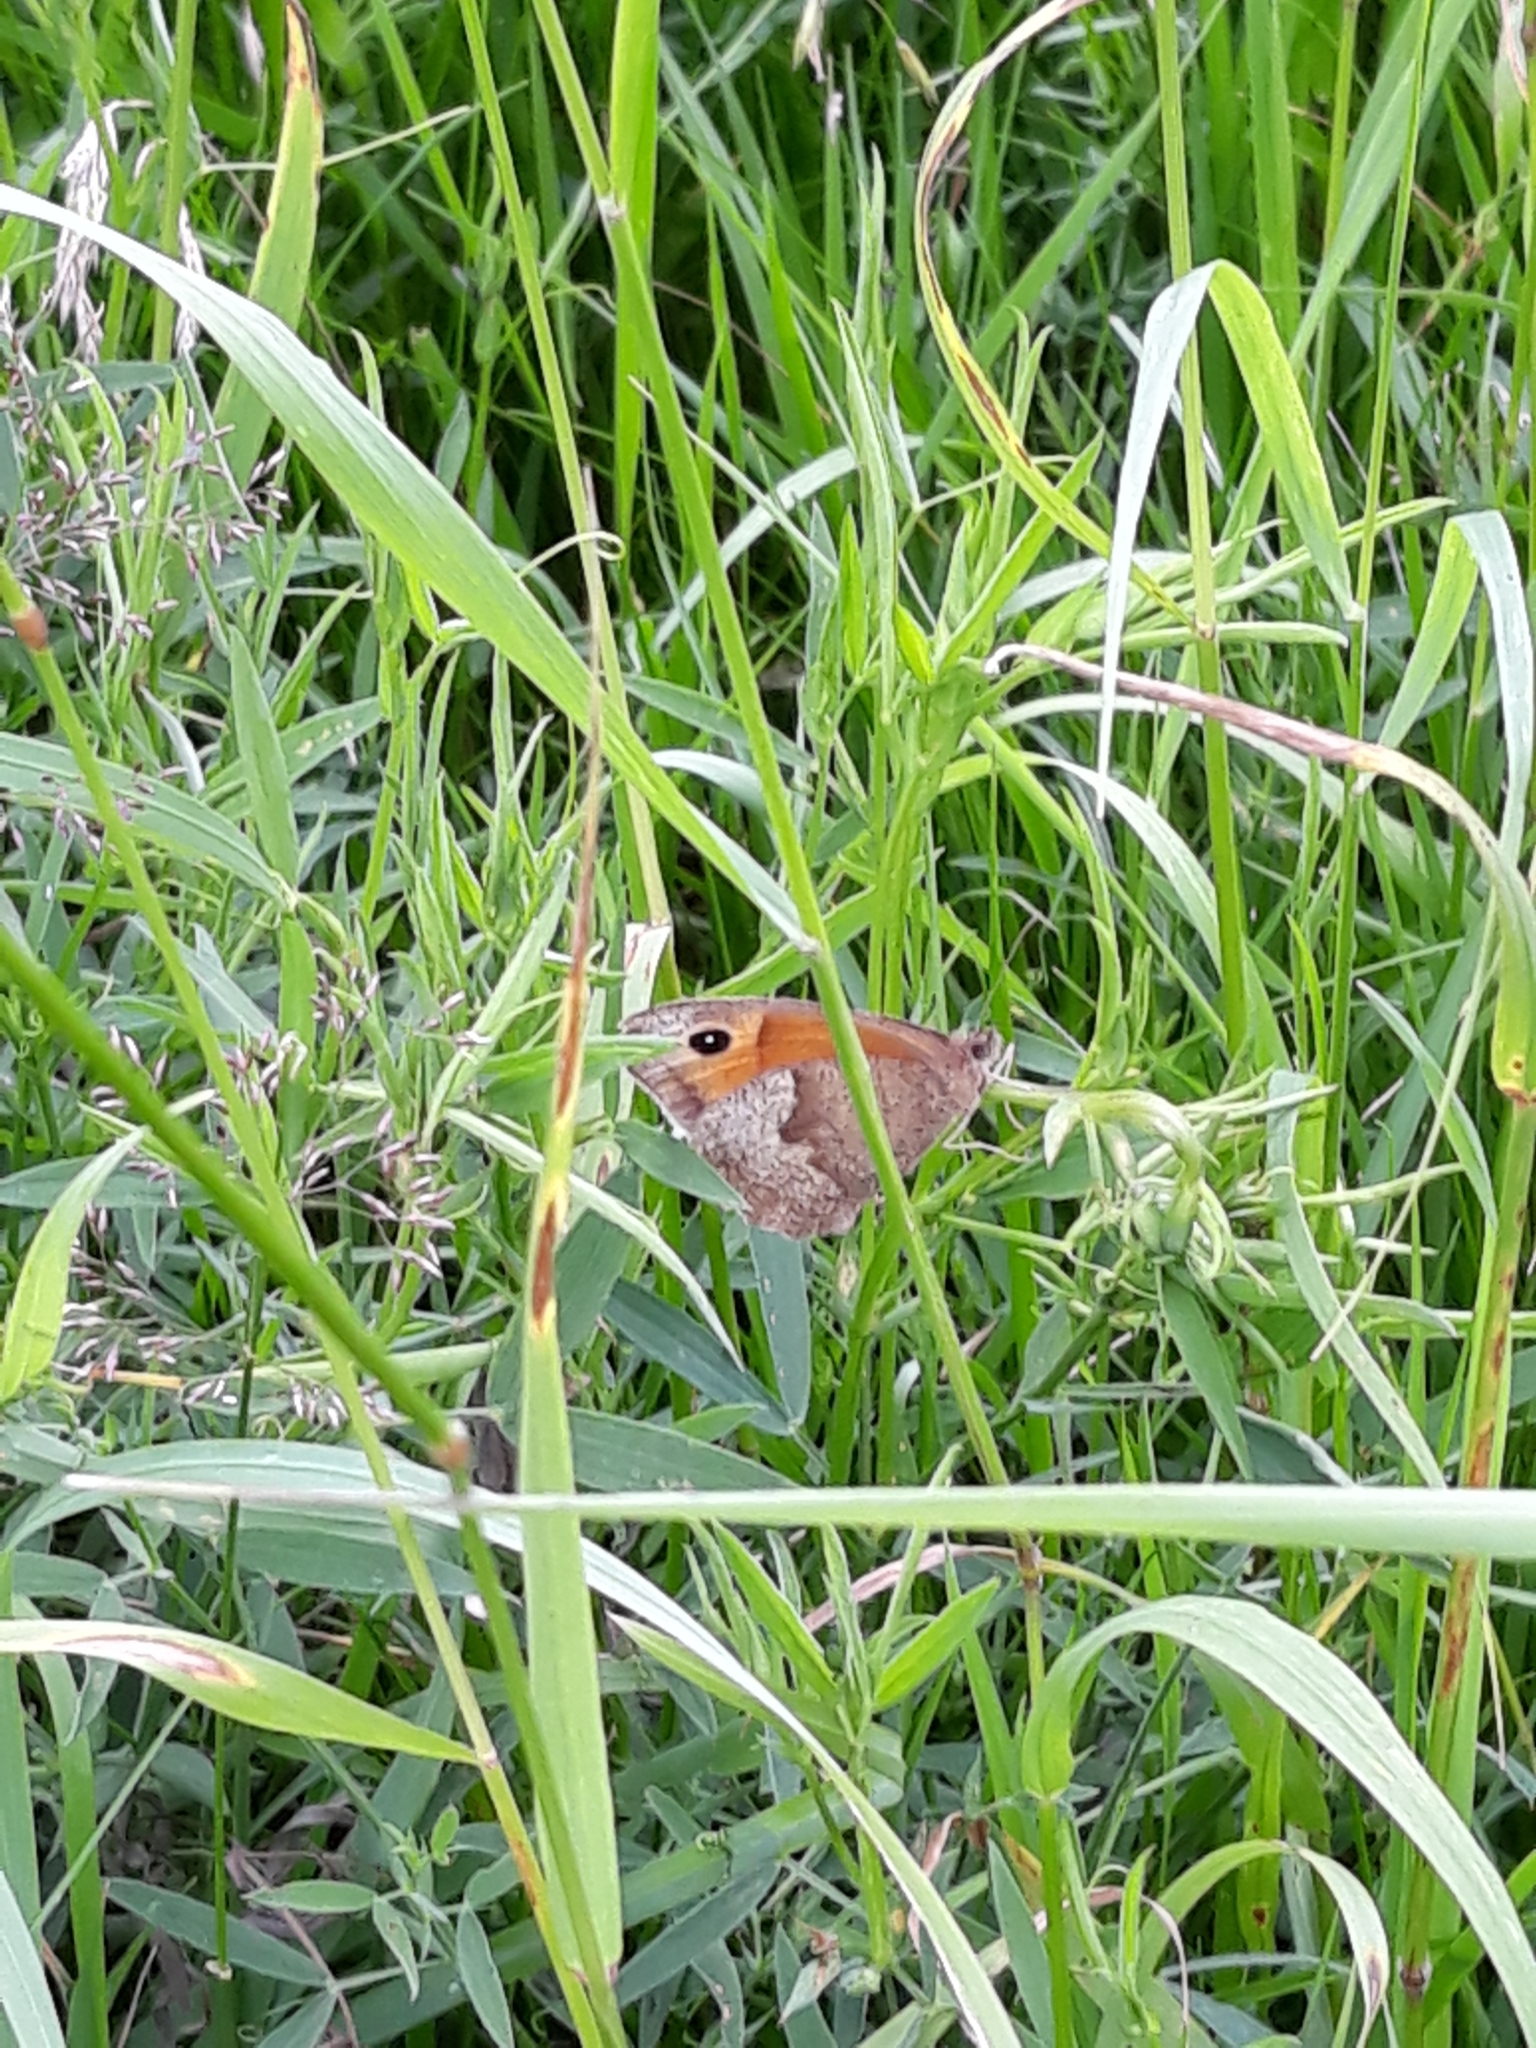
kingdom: Animalia
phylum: Arthropoda
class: Insecta
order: Lepidoptera
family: Nymphalidae
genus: Maniola
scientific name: Maniola jurtina
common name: Meadow brown
